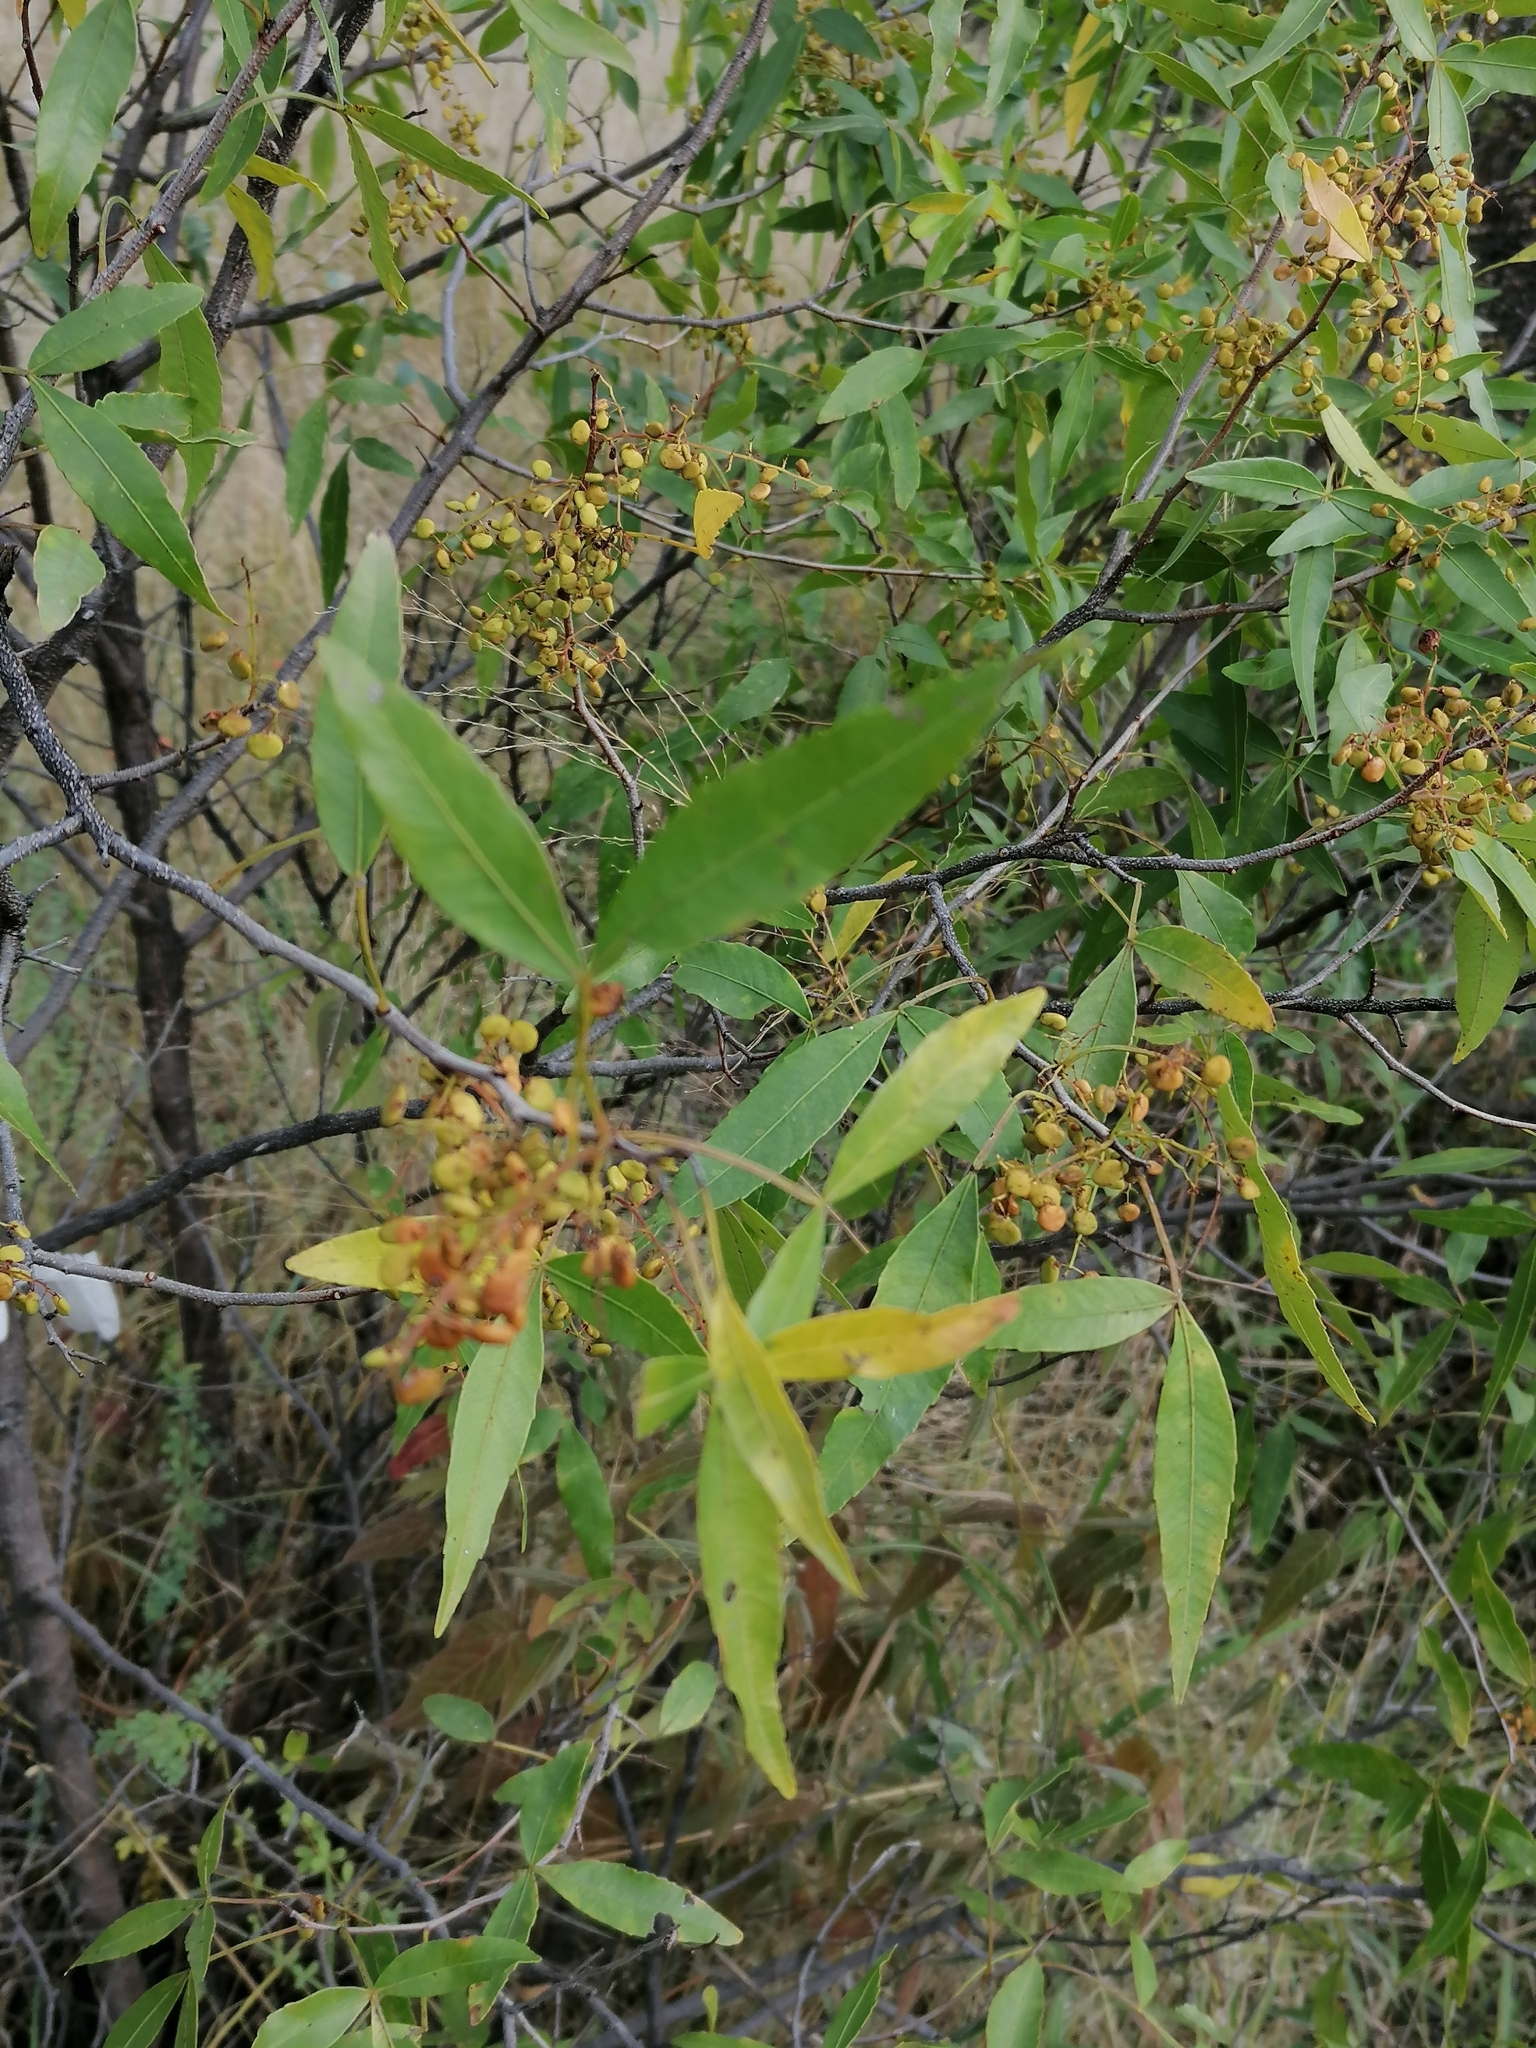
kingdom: Plantae
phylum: Tracheophyta
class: Magnoliopsida
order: Sapindales
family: Anacardiaceae
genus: Searsia
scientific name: Searsia leptodictya
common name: Mountain karee
